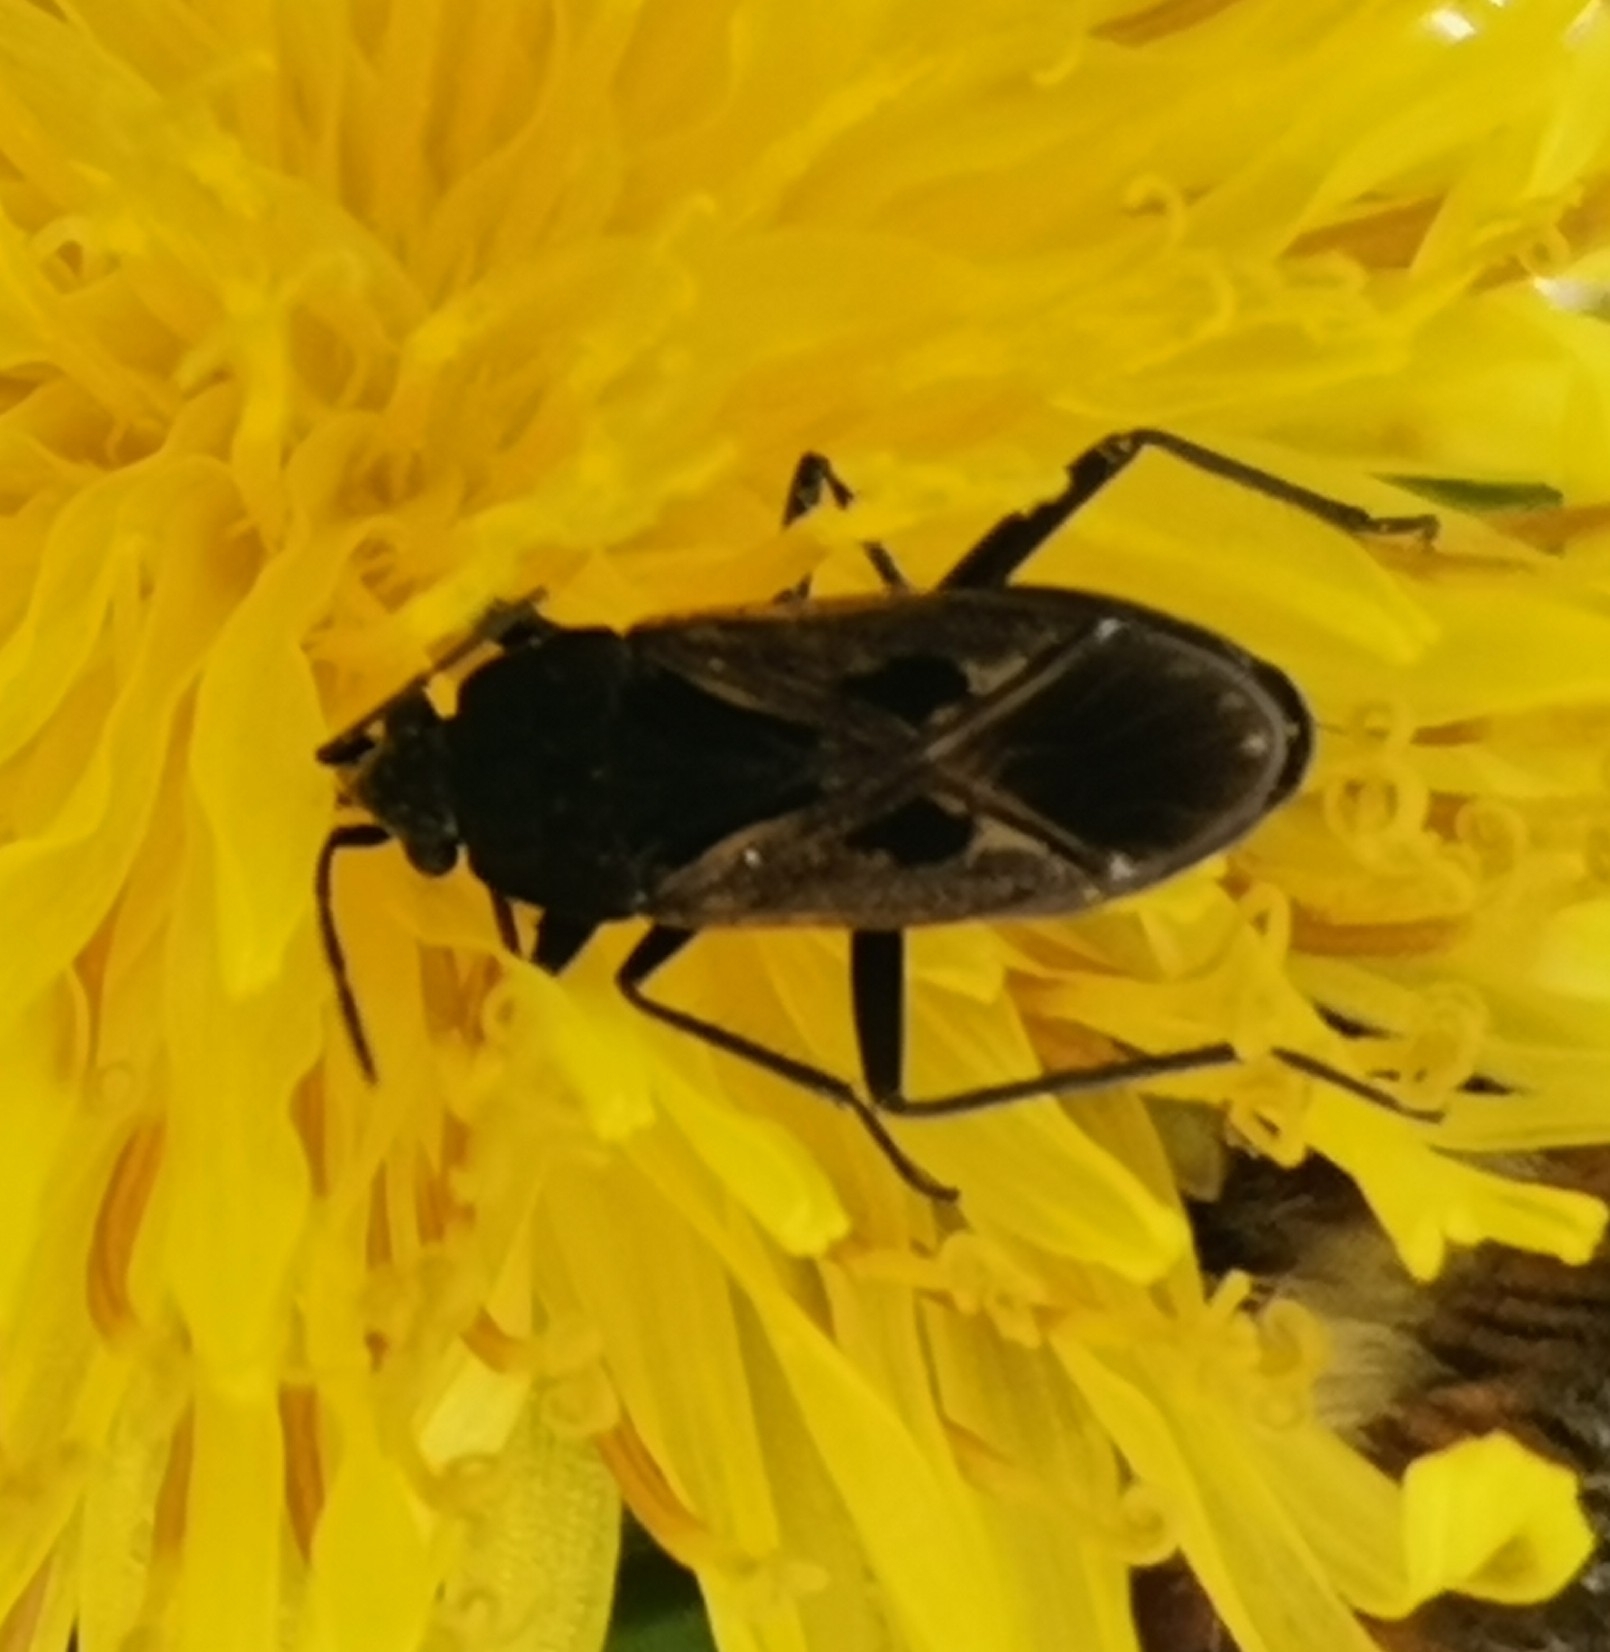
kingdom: Animalia
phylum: Arthropoda
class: Insecta
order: Hemiptera
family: Rhyparochromidae
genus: Rhyparochromus
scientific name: Rhyparochromus pini
